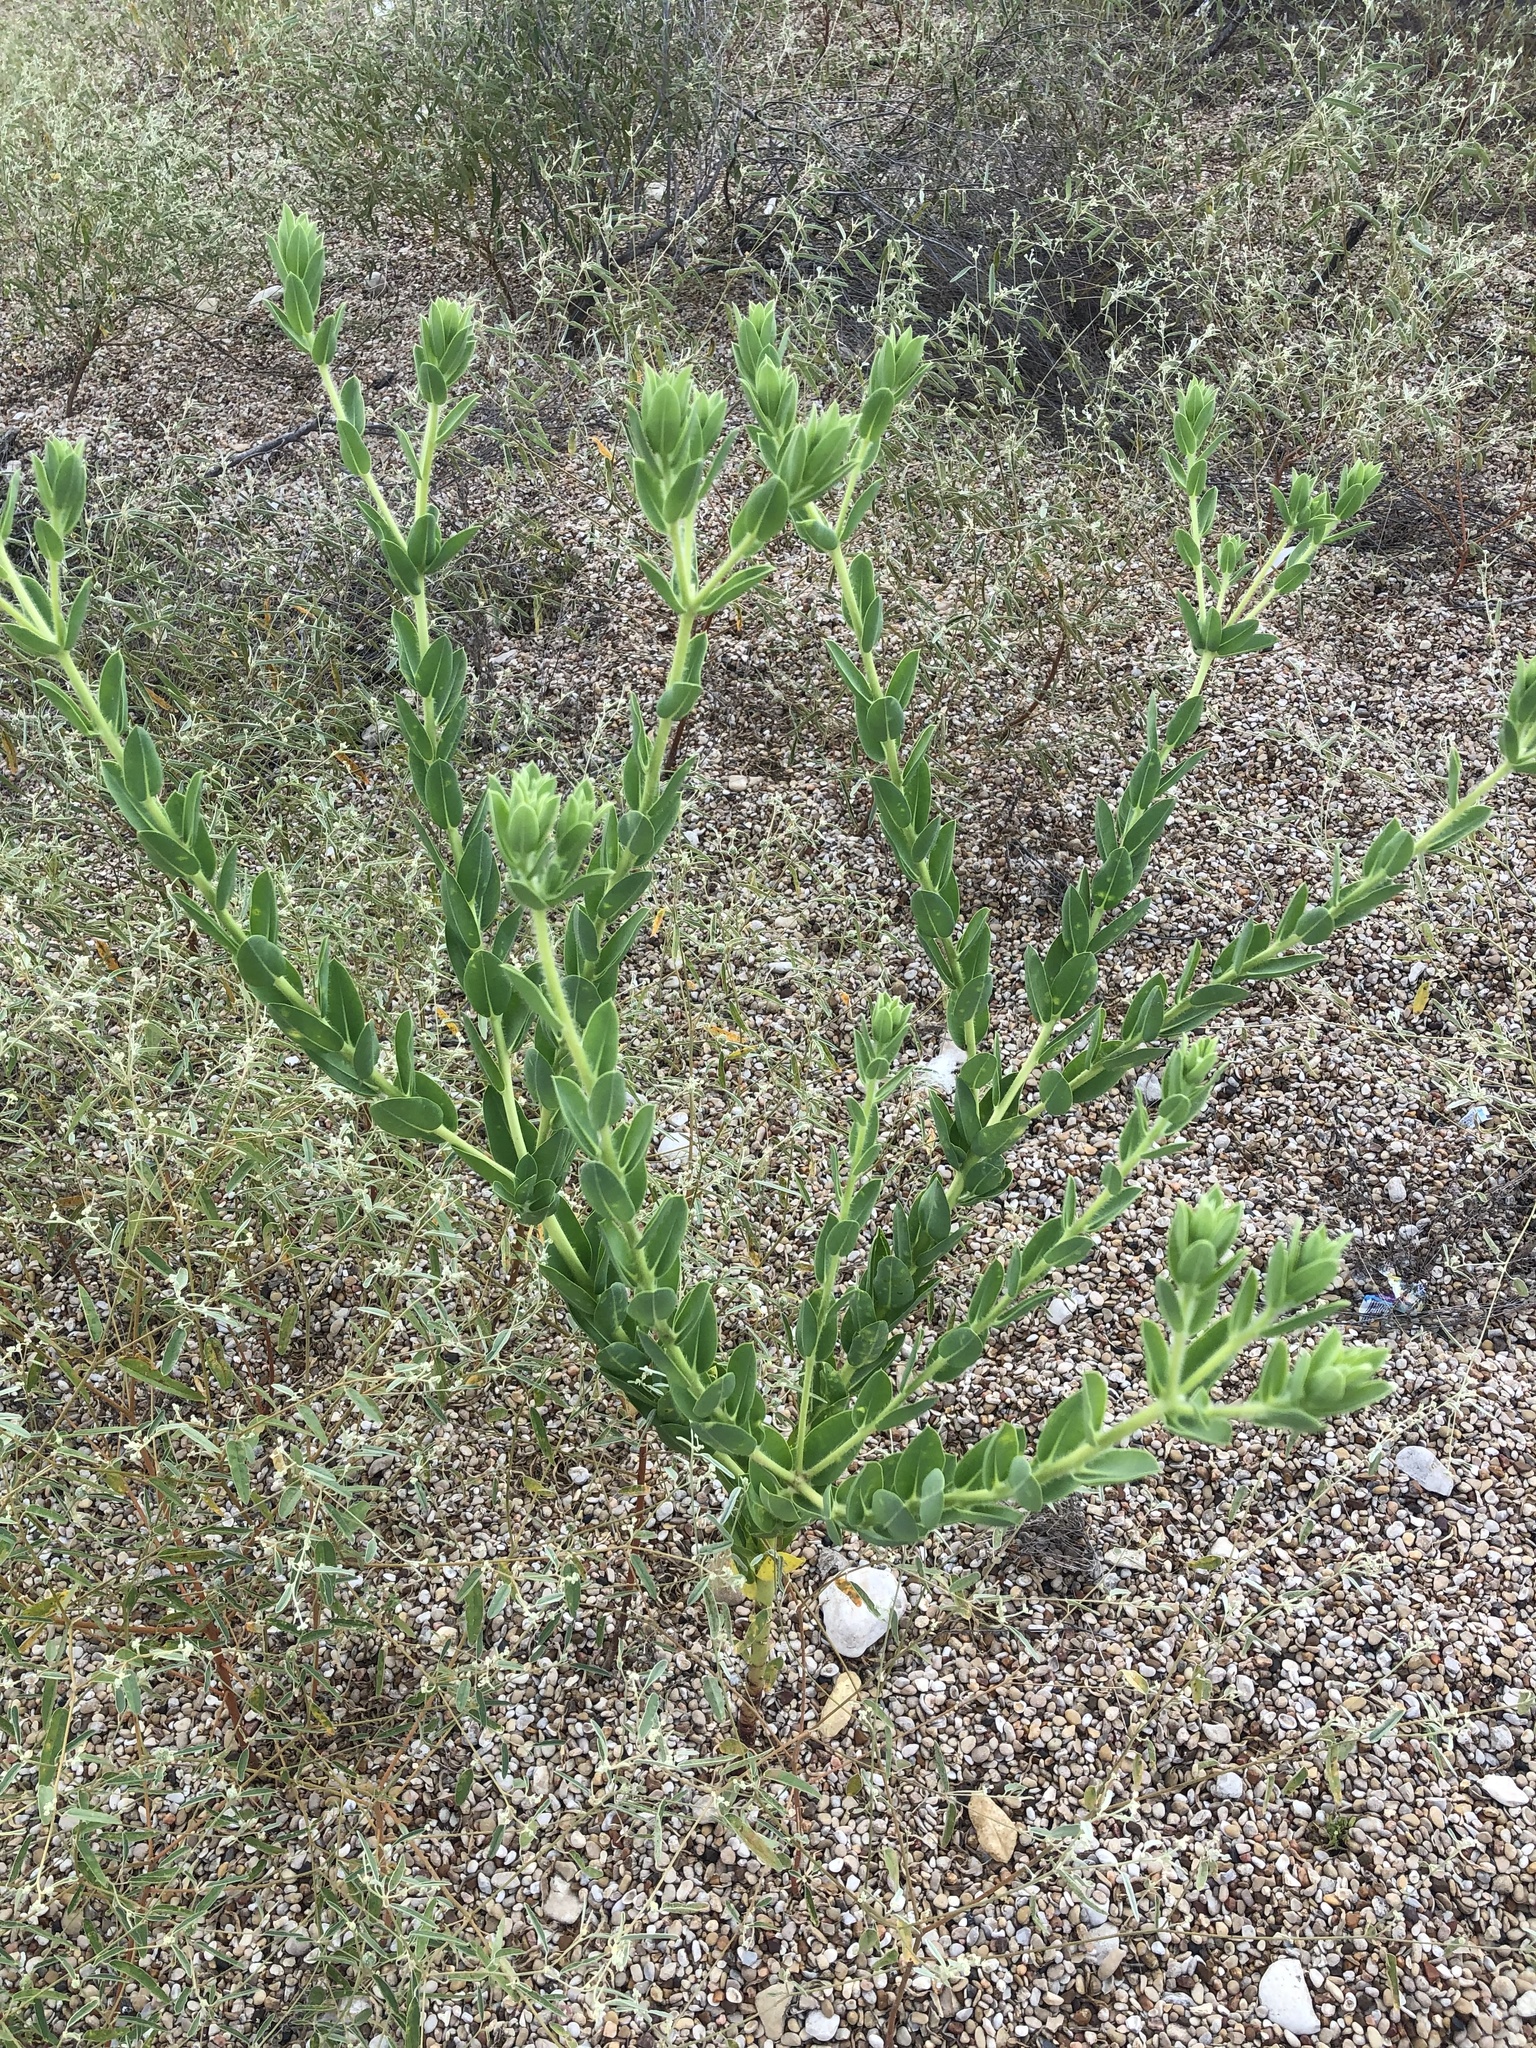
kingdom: Plantae
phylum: Tracheophyta
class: Magnoliopsida
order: Malpighiales
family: Euphorbiaceae
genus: Euphorbia
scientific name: Euphorbia marginata
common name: Ghostweed
